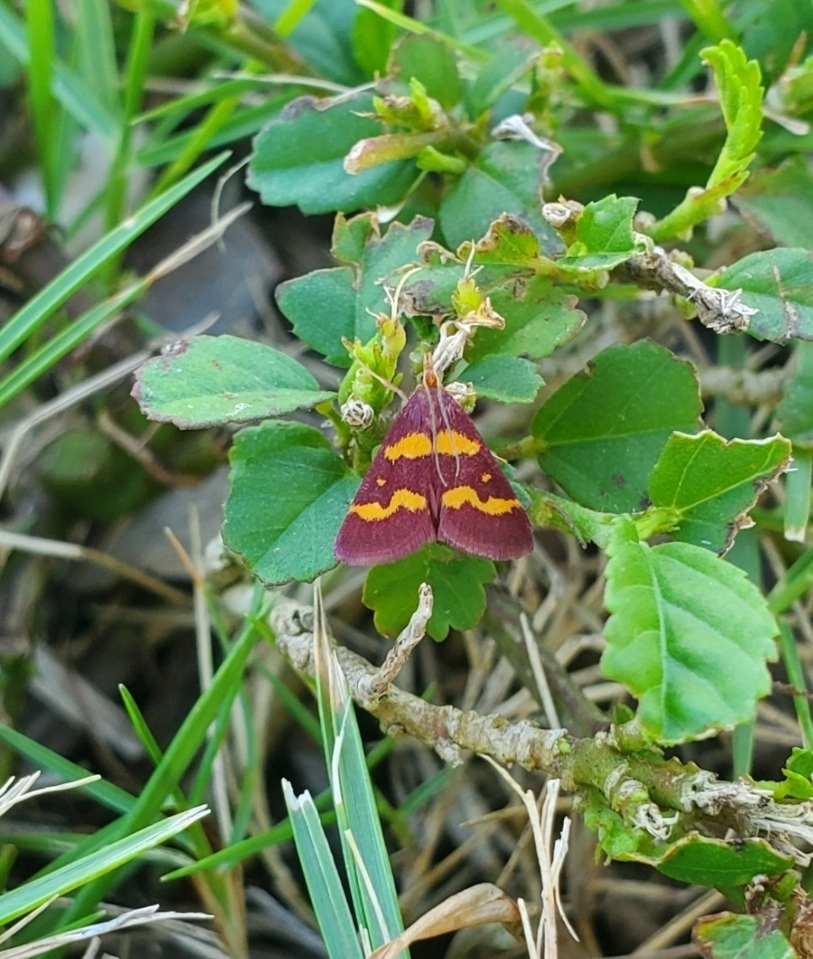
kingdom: Animalia
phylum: Arthropoda
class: Insecta
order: Lepidoptera
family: Crambidae
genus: Pyrausta
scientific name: Pyrausta tyralis
